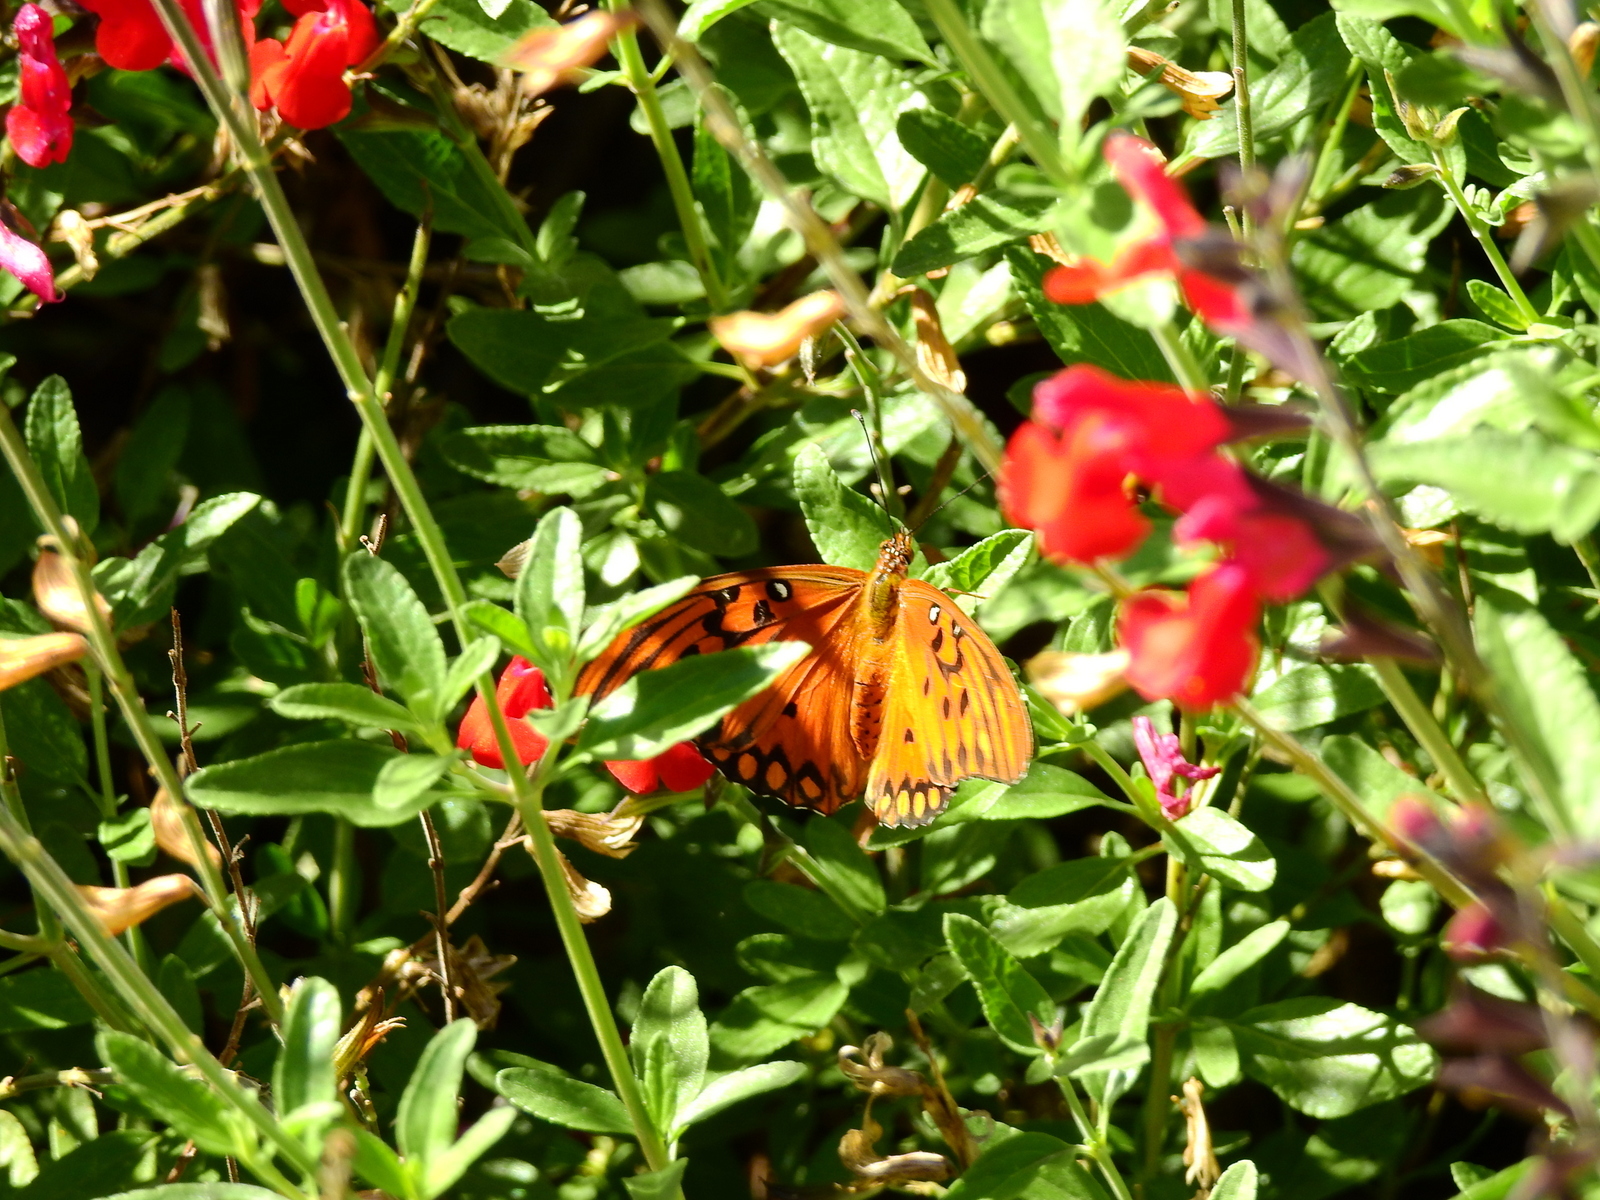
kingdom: Animalia
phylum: Arthropoda
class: Insecta
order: Lepidoptera
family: Nymphalidae
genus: Dione
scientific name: Dione vanillae
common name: Gulf fritillary
